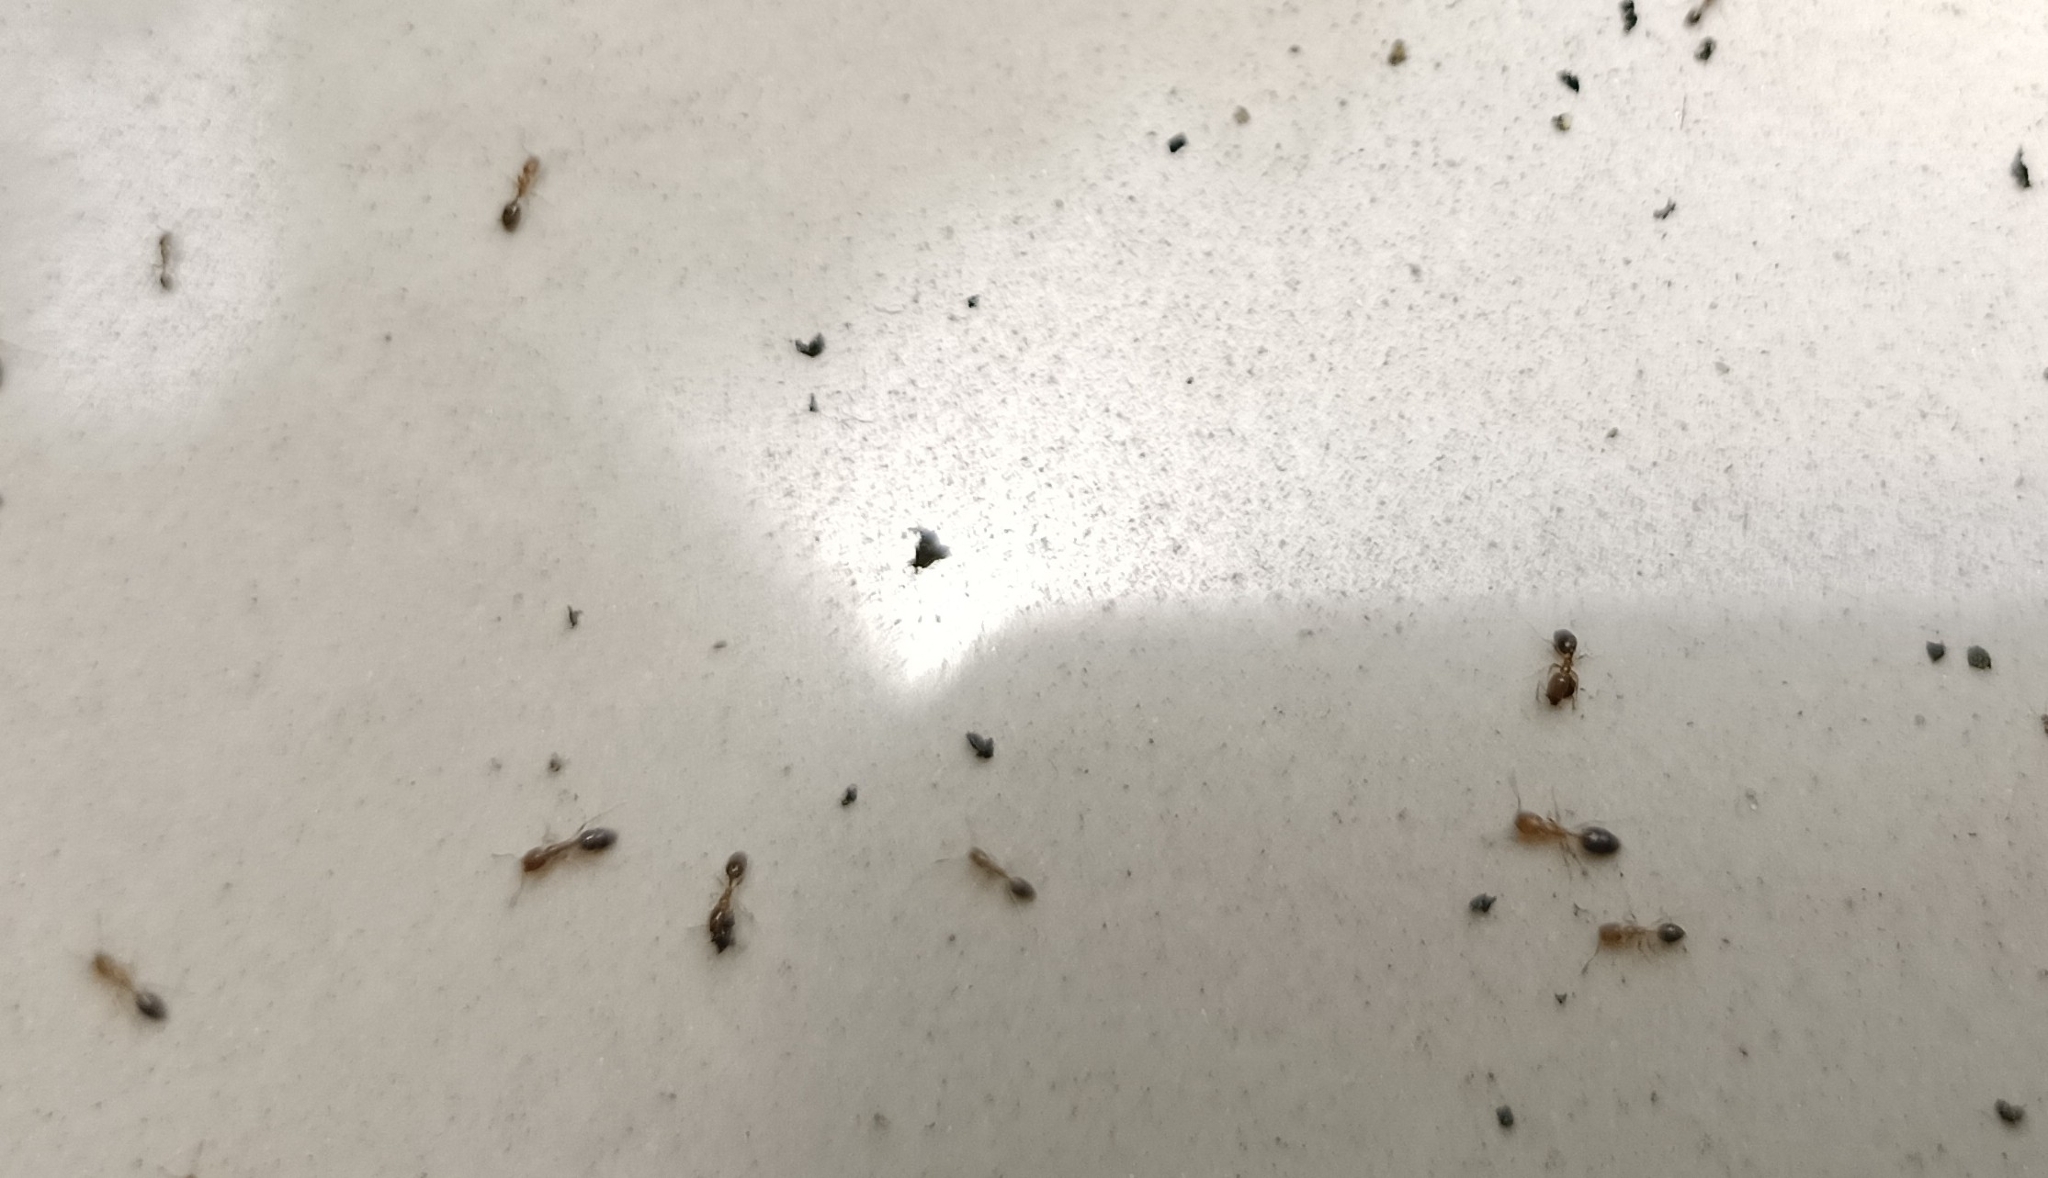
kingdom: Animalia
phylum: Arthropoda
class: Insecta
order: Hymenoptera
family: Formicidae
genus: Monomorium
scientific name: Monomorium destructor
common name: Destructive trailing ant
